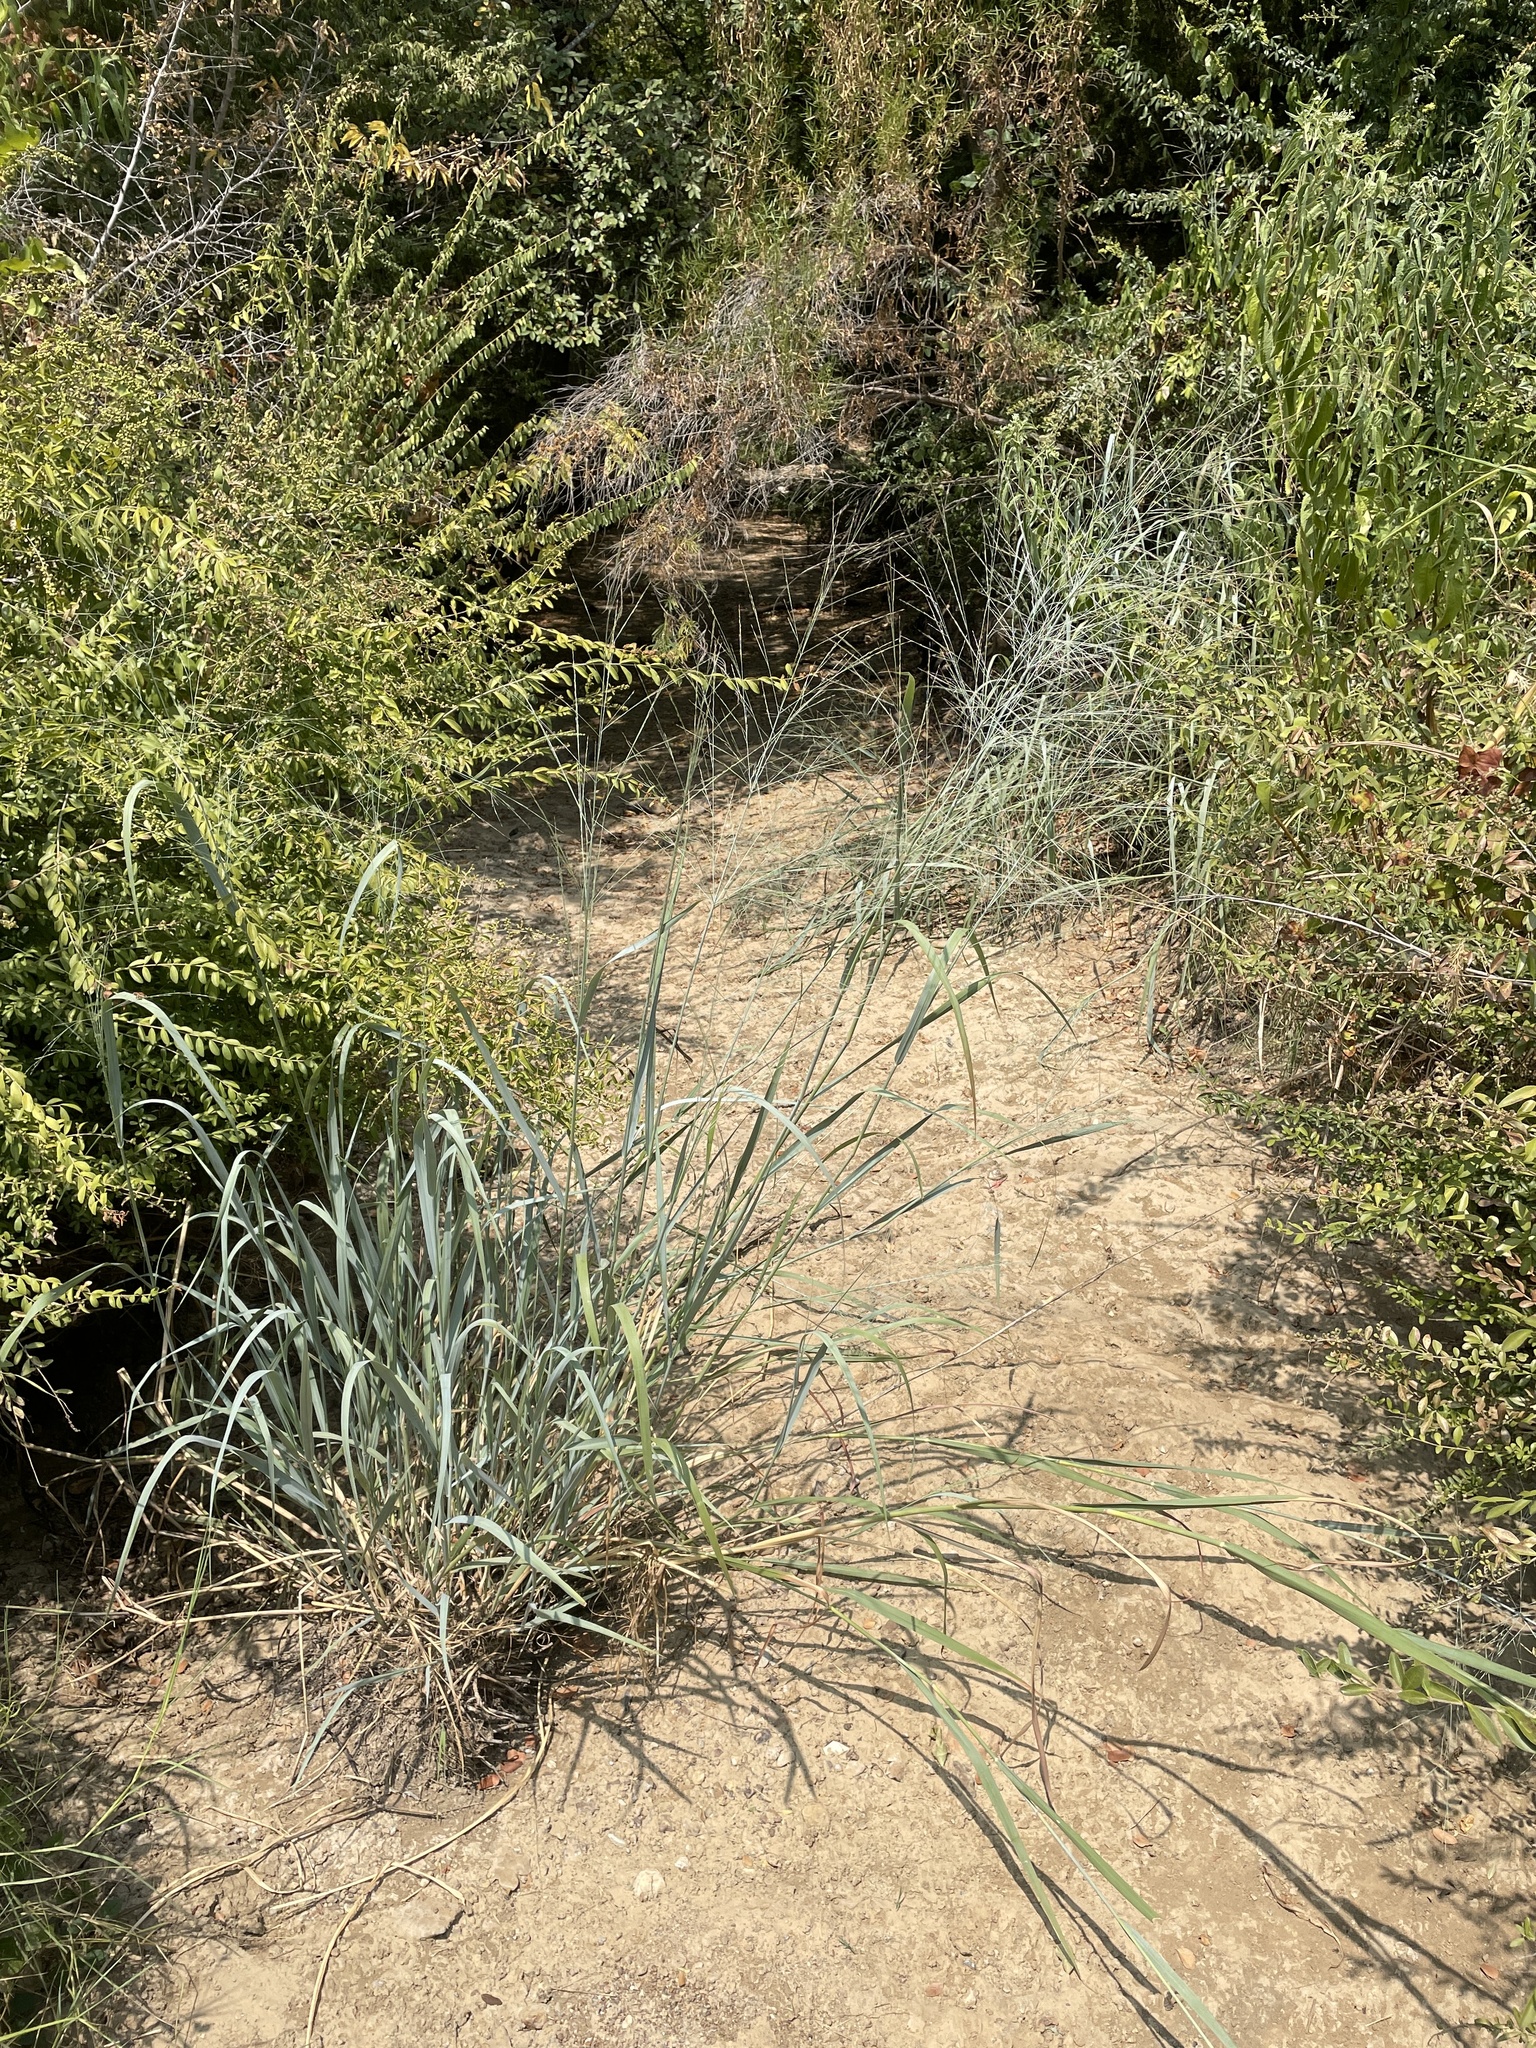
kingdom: Plantae
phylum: Tracheophyta
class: Liliopsida
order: Poales
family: Poaceae
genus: Panicum
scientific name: Panicum virgatum
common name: Switchgrass
